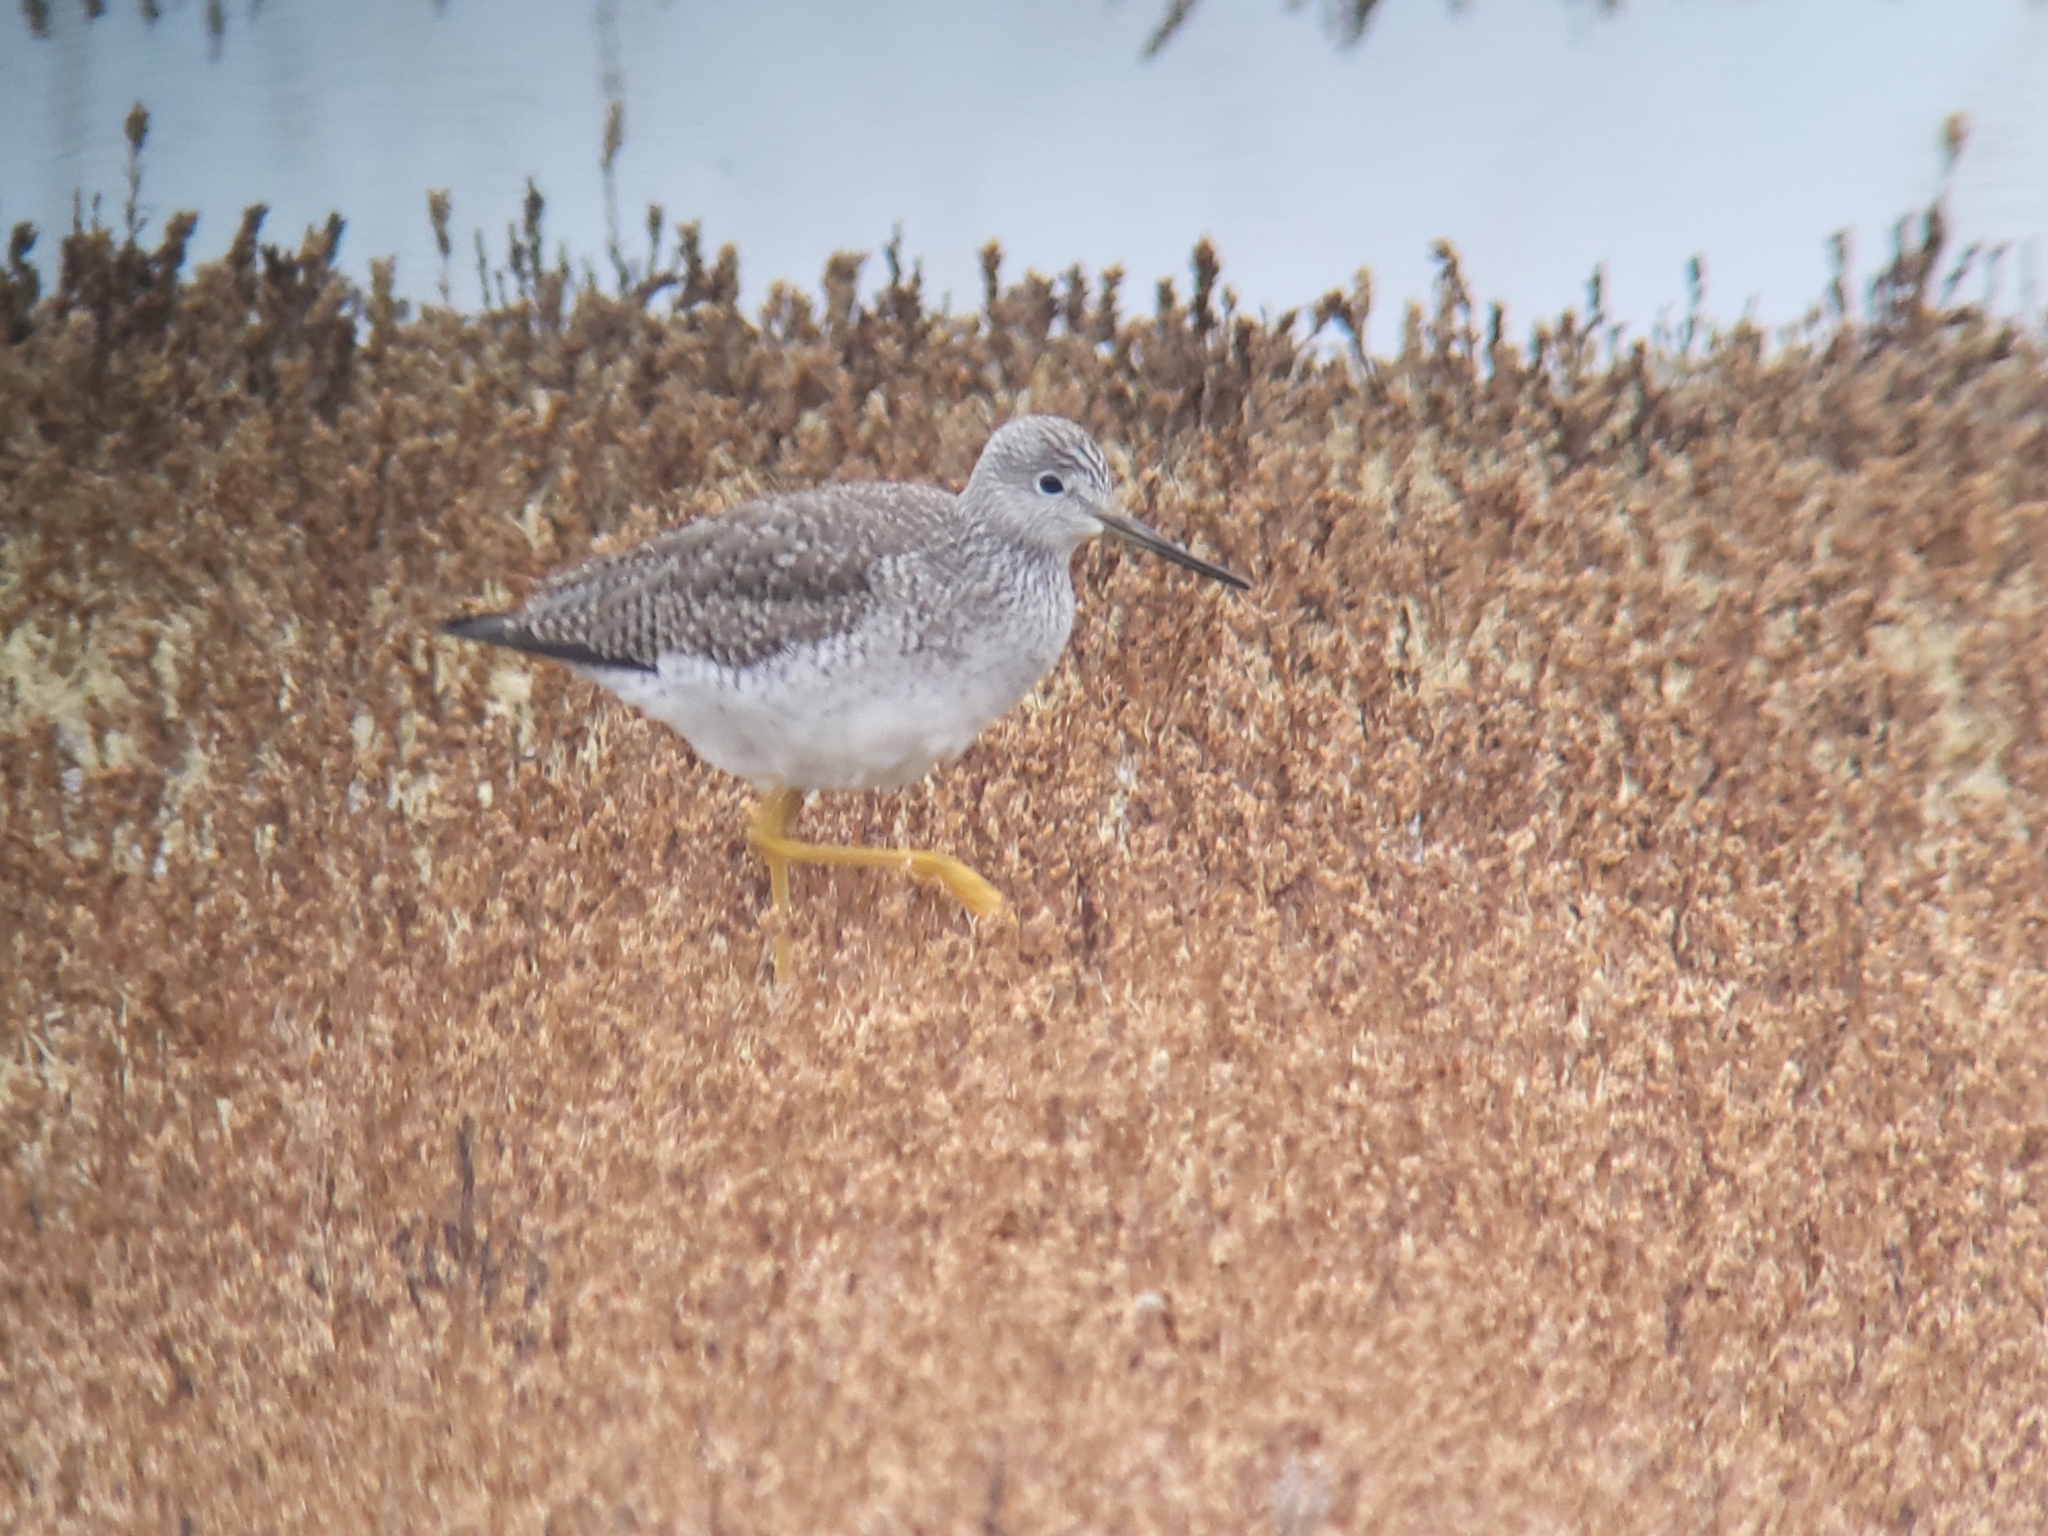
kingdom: Animalia
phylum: Chordata
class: Aves
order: Charadriiformes
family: Scolopacidae
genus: Tringa
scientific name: Tringa melanoleuca
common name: Greater yellowlegs
